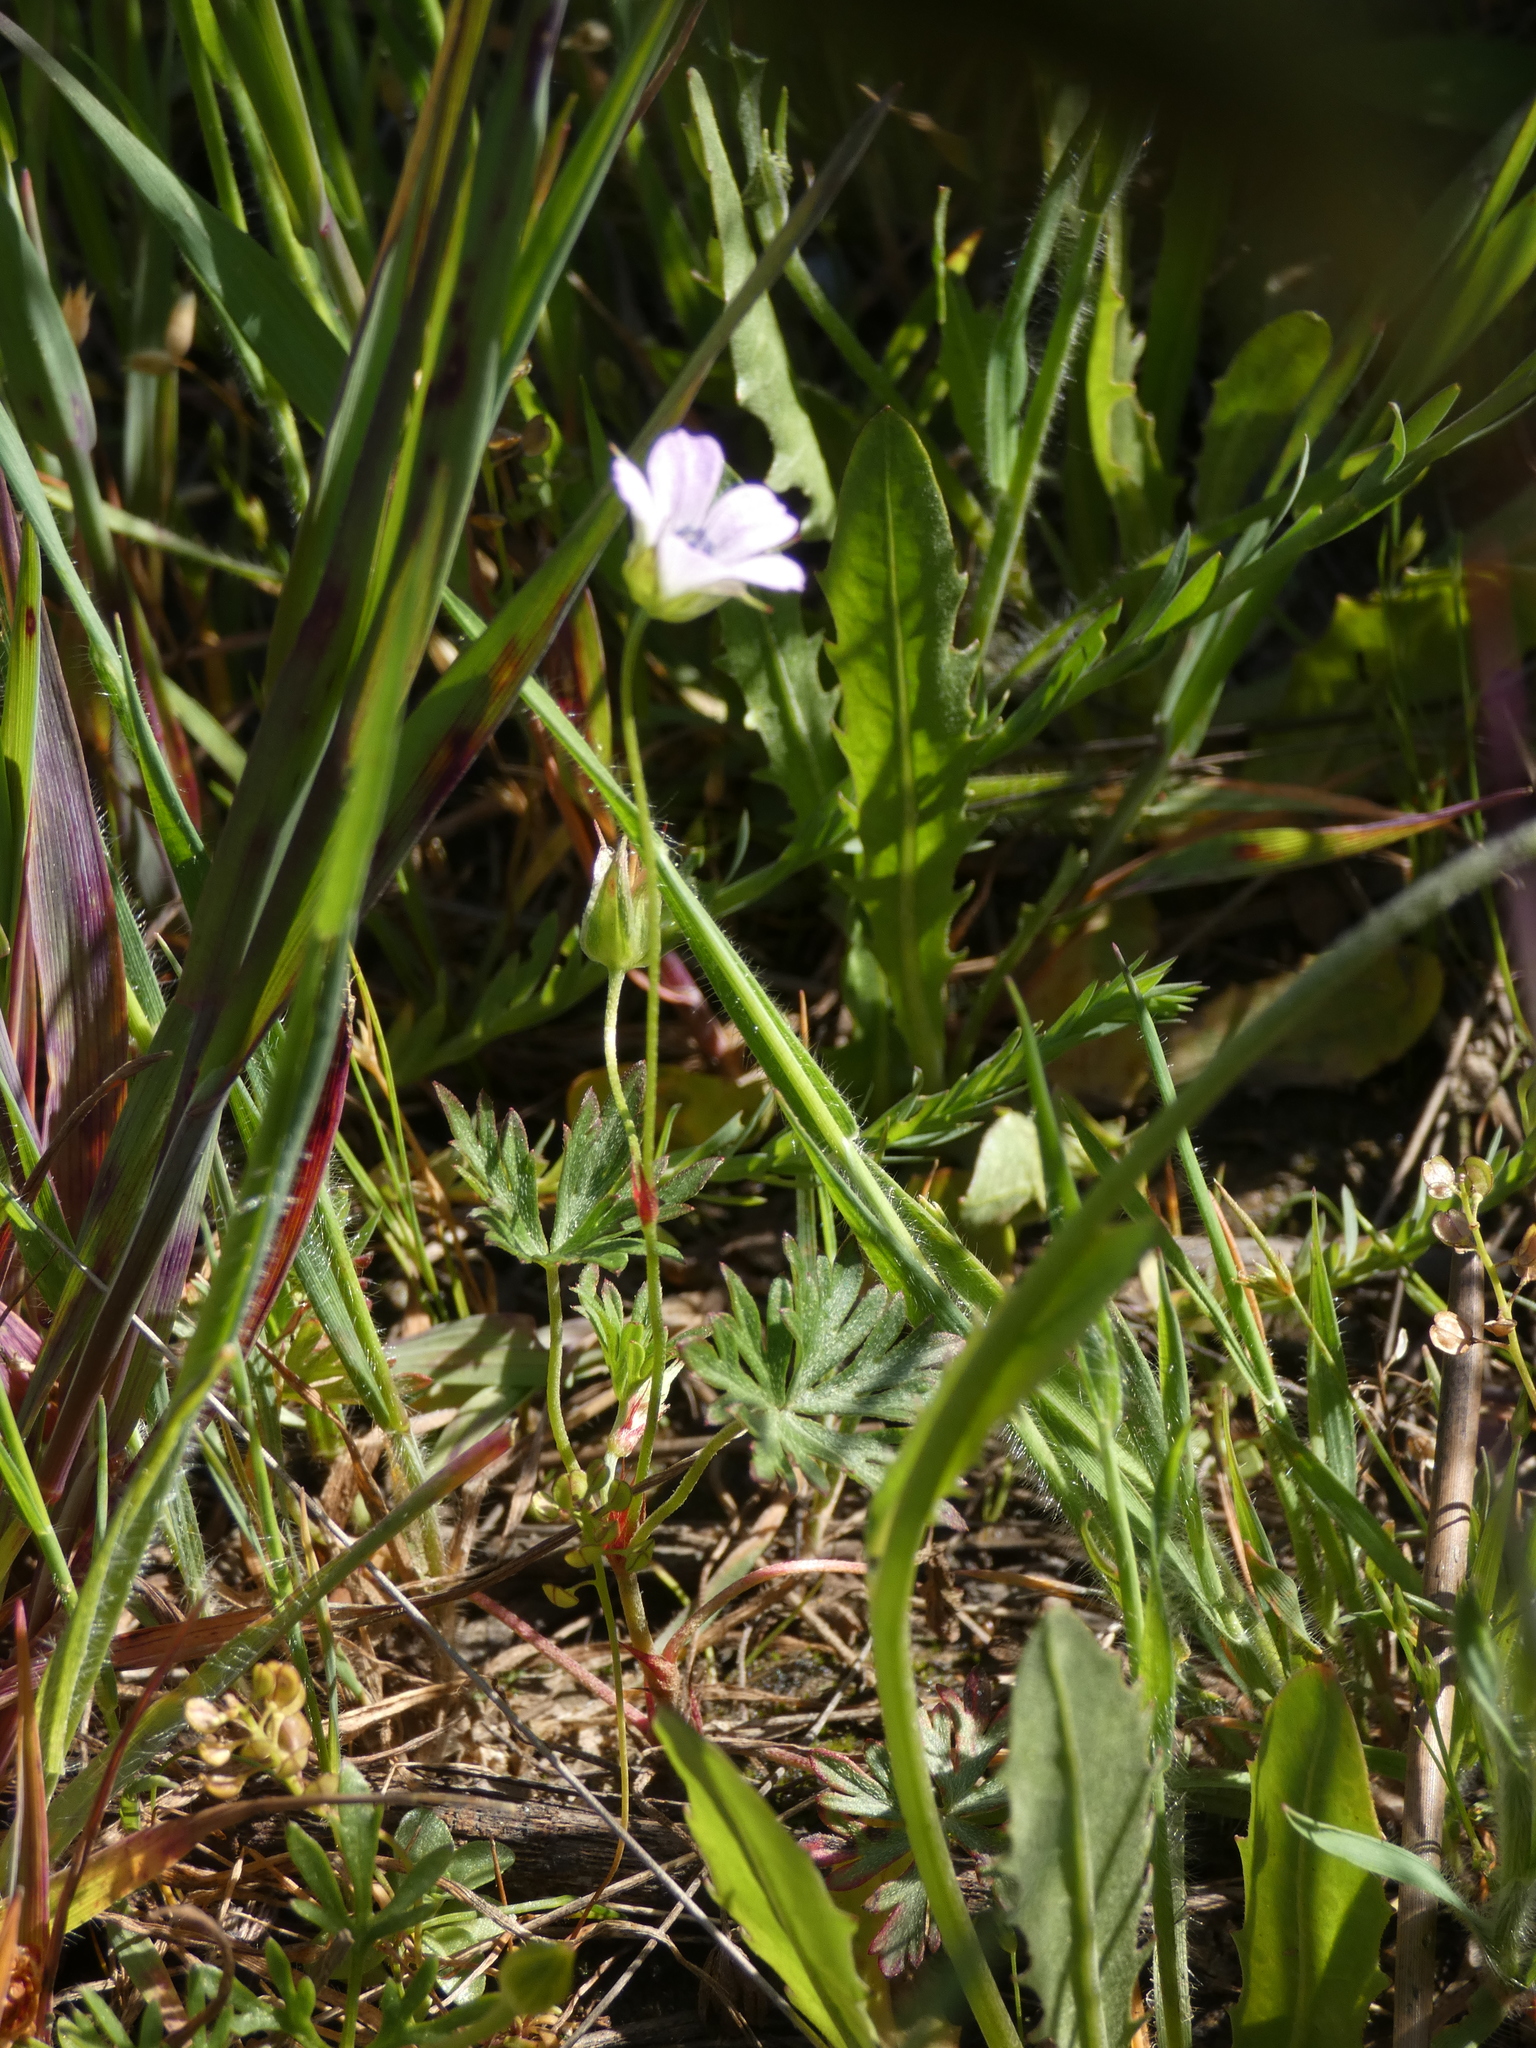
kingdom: Plantae
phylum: Tracheophyta
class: Magnoliopsida
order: Geraniales
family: Geraniaceae
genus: Geranium
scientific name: Geranium columbinum
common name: Long-stalked crane's-bill
